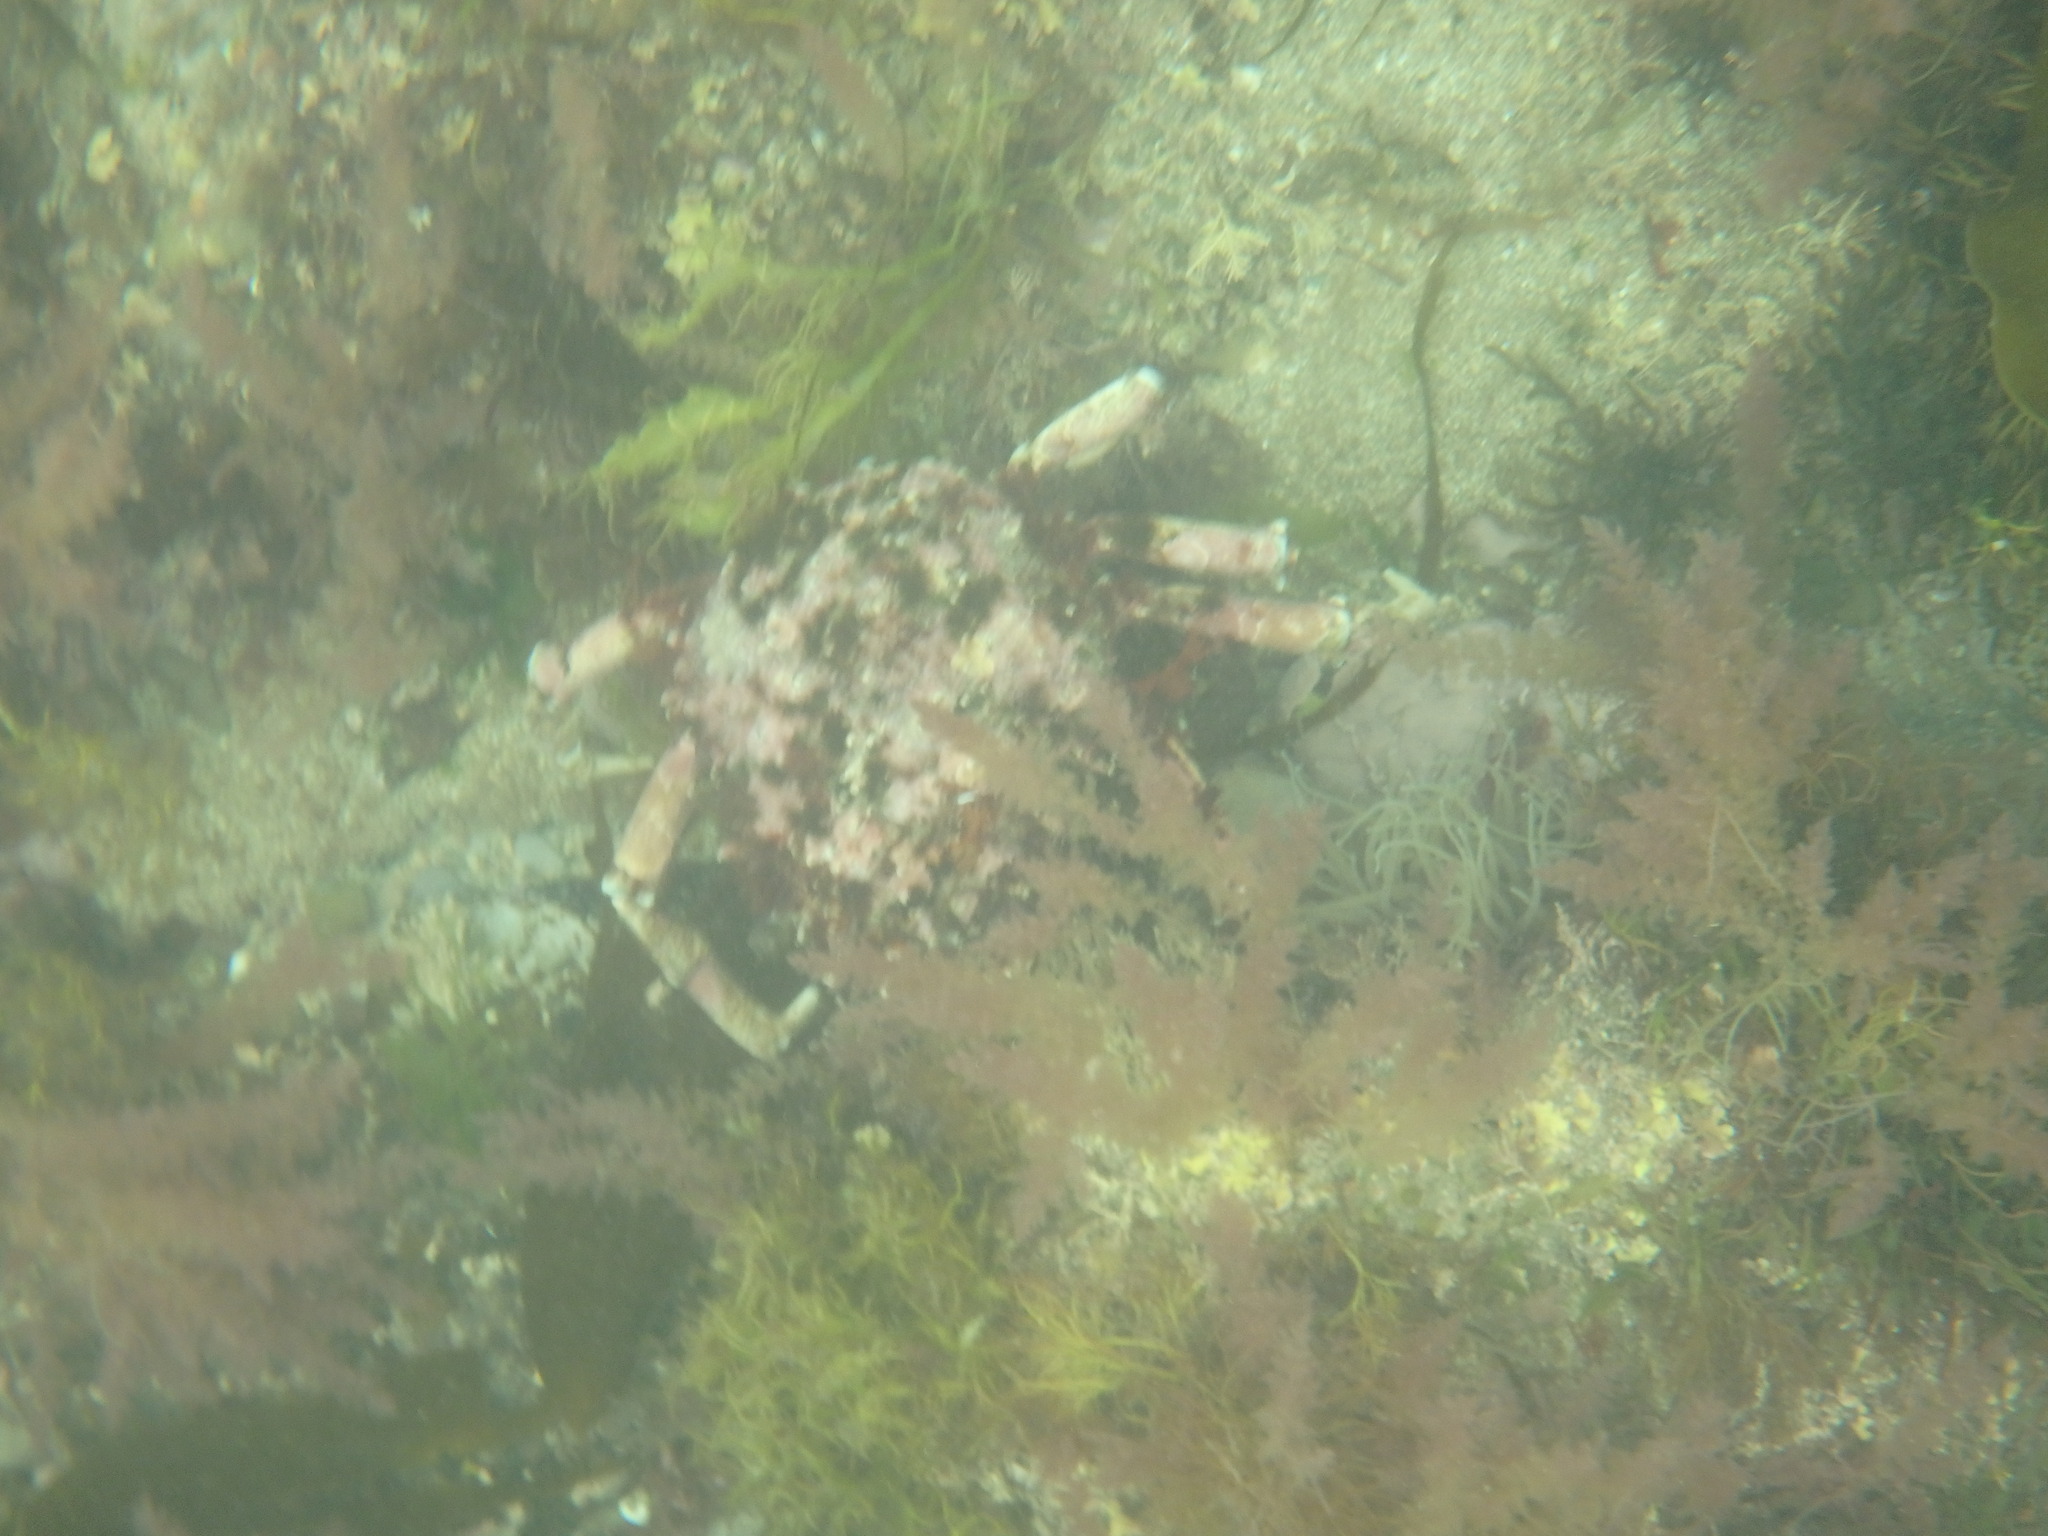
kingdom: Animalia
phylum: Arthropoda
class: Malacostraca
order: Decapoda
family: Majidae
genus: Maja
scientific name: Maja brachydactyla
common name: Common spider crab
